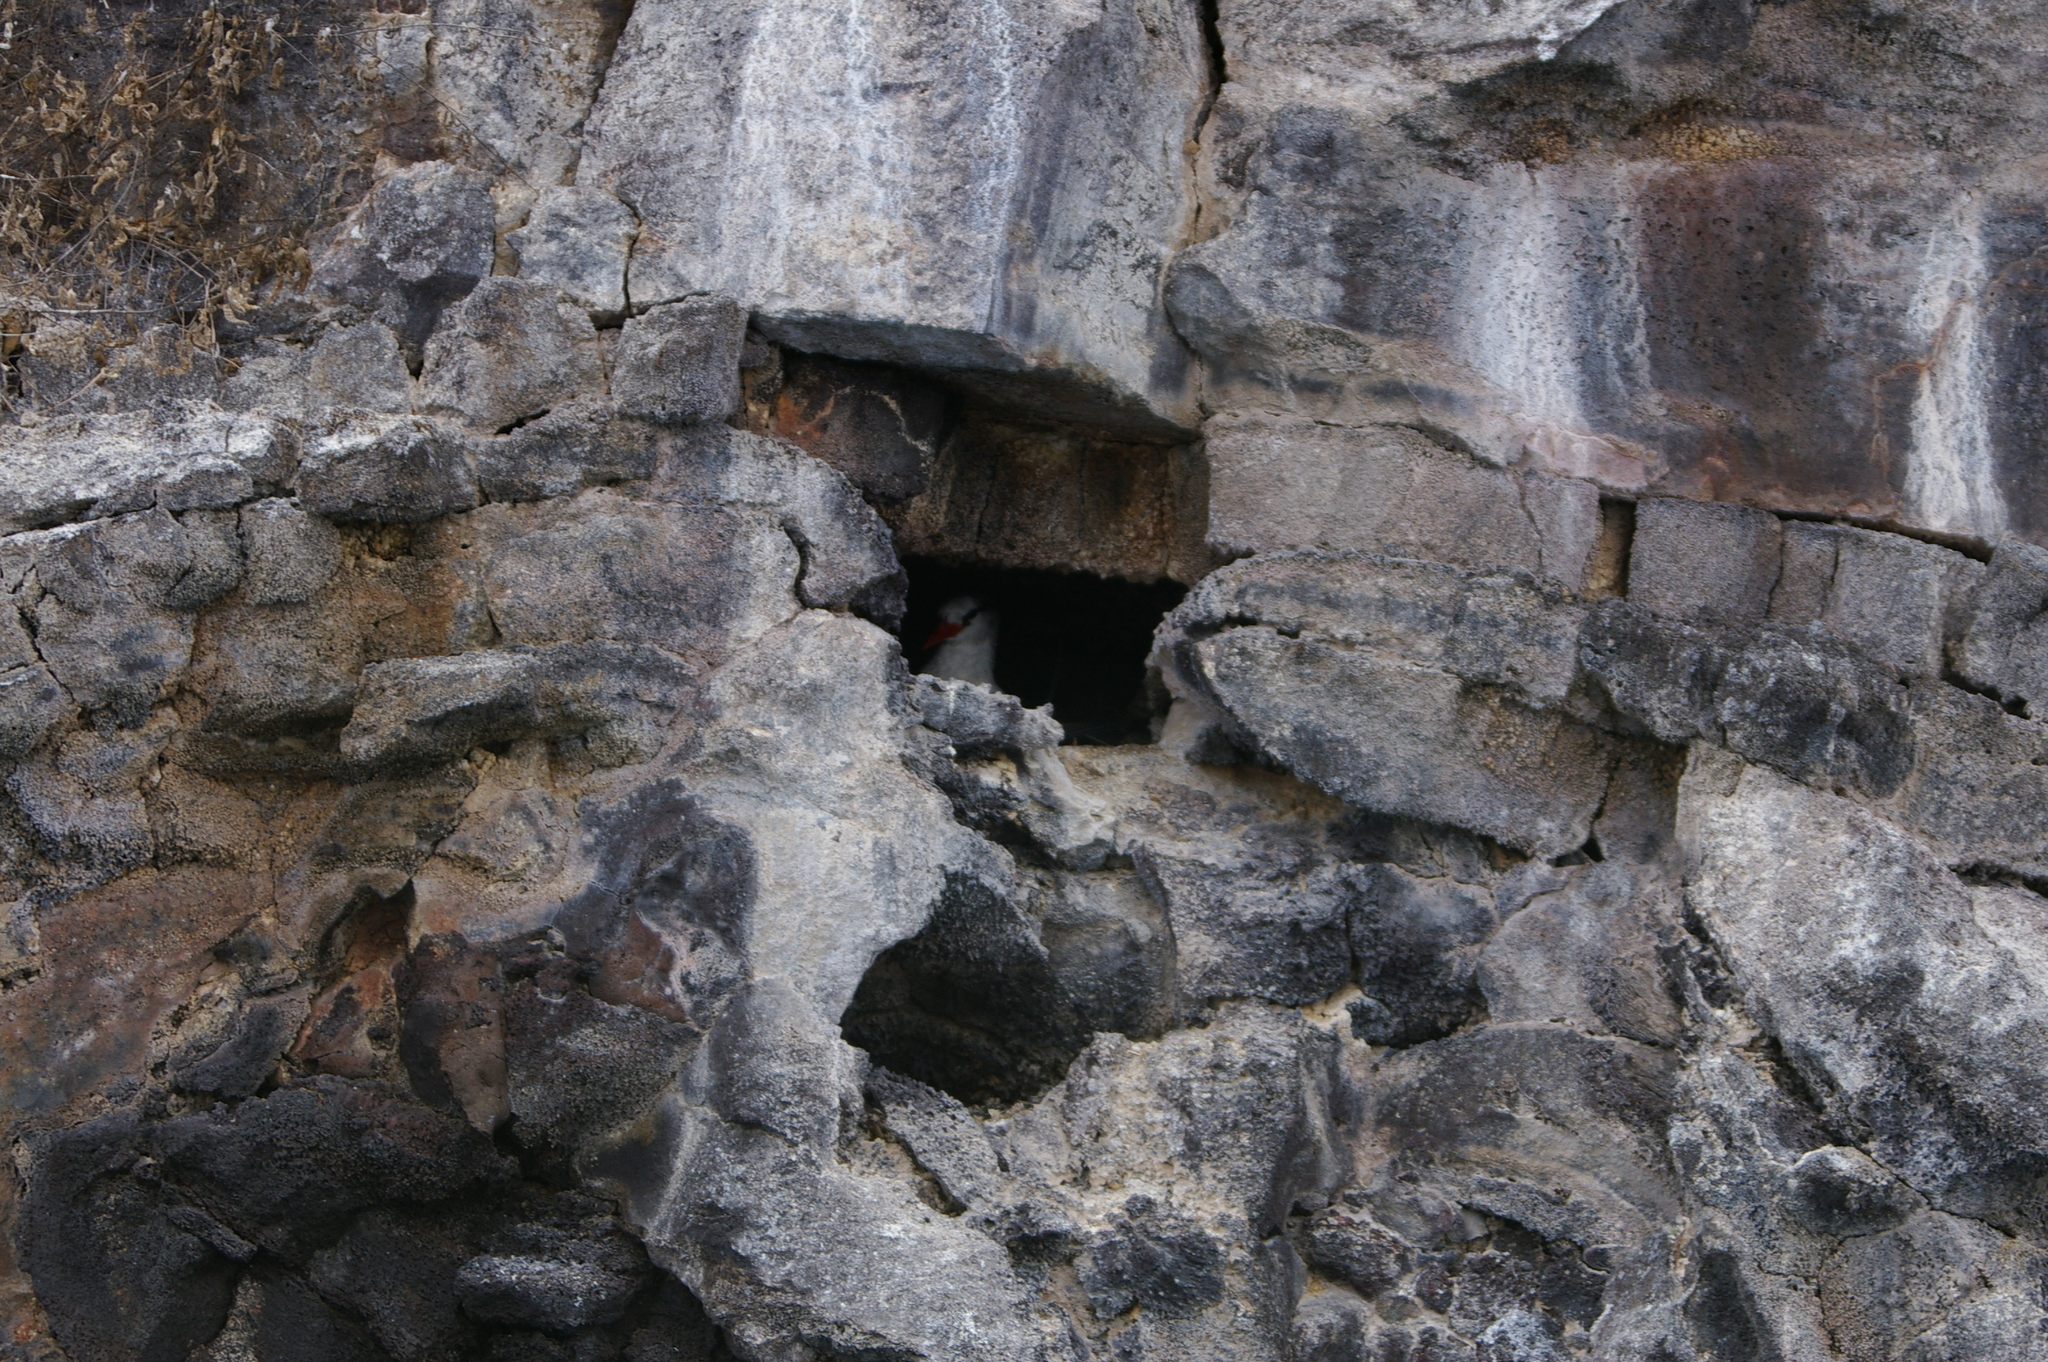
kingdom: Animalia
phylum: Chordata
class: Aves
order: Phaethontiformes
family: Phaethontidae
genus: Phaethon
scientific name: Phaethon aethereus
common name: Red-billed tropicbird
